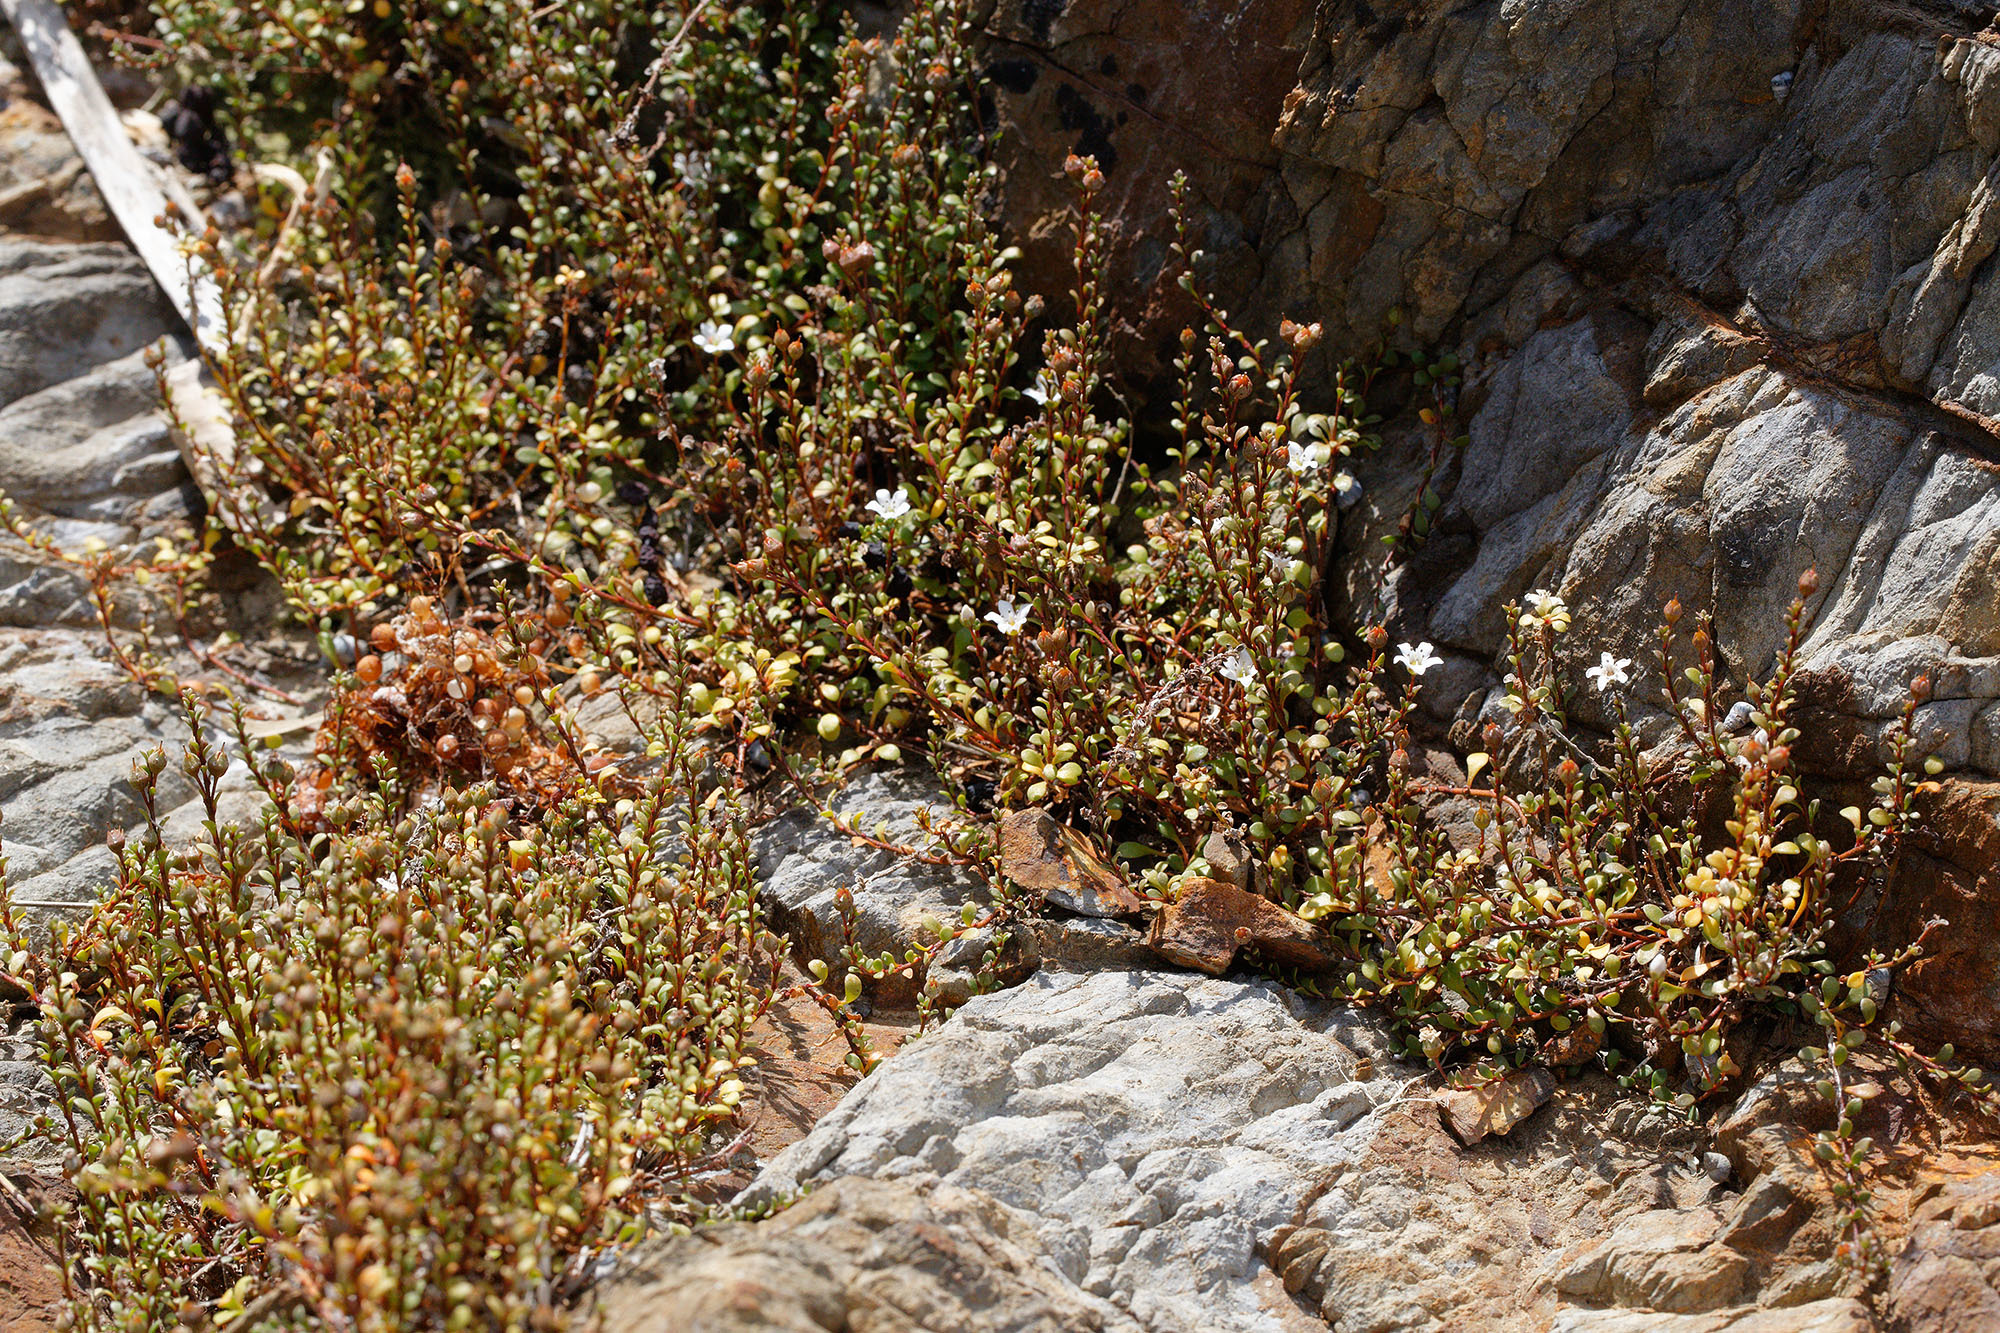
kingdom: Plantae
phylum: Tracheophyta
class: Magnoliopsida
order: Ericales
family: Primulaceae
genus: Samolus
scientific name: Samolus repens
